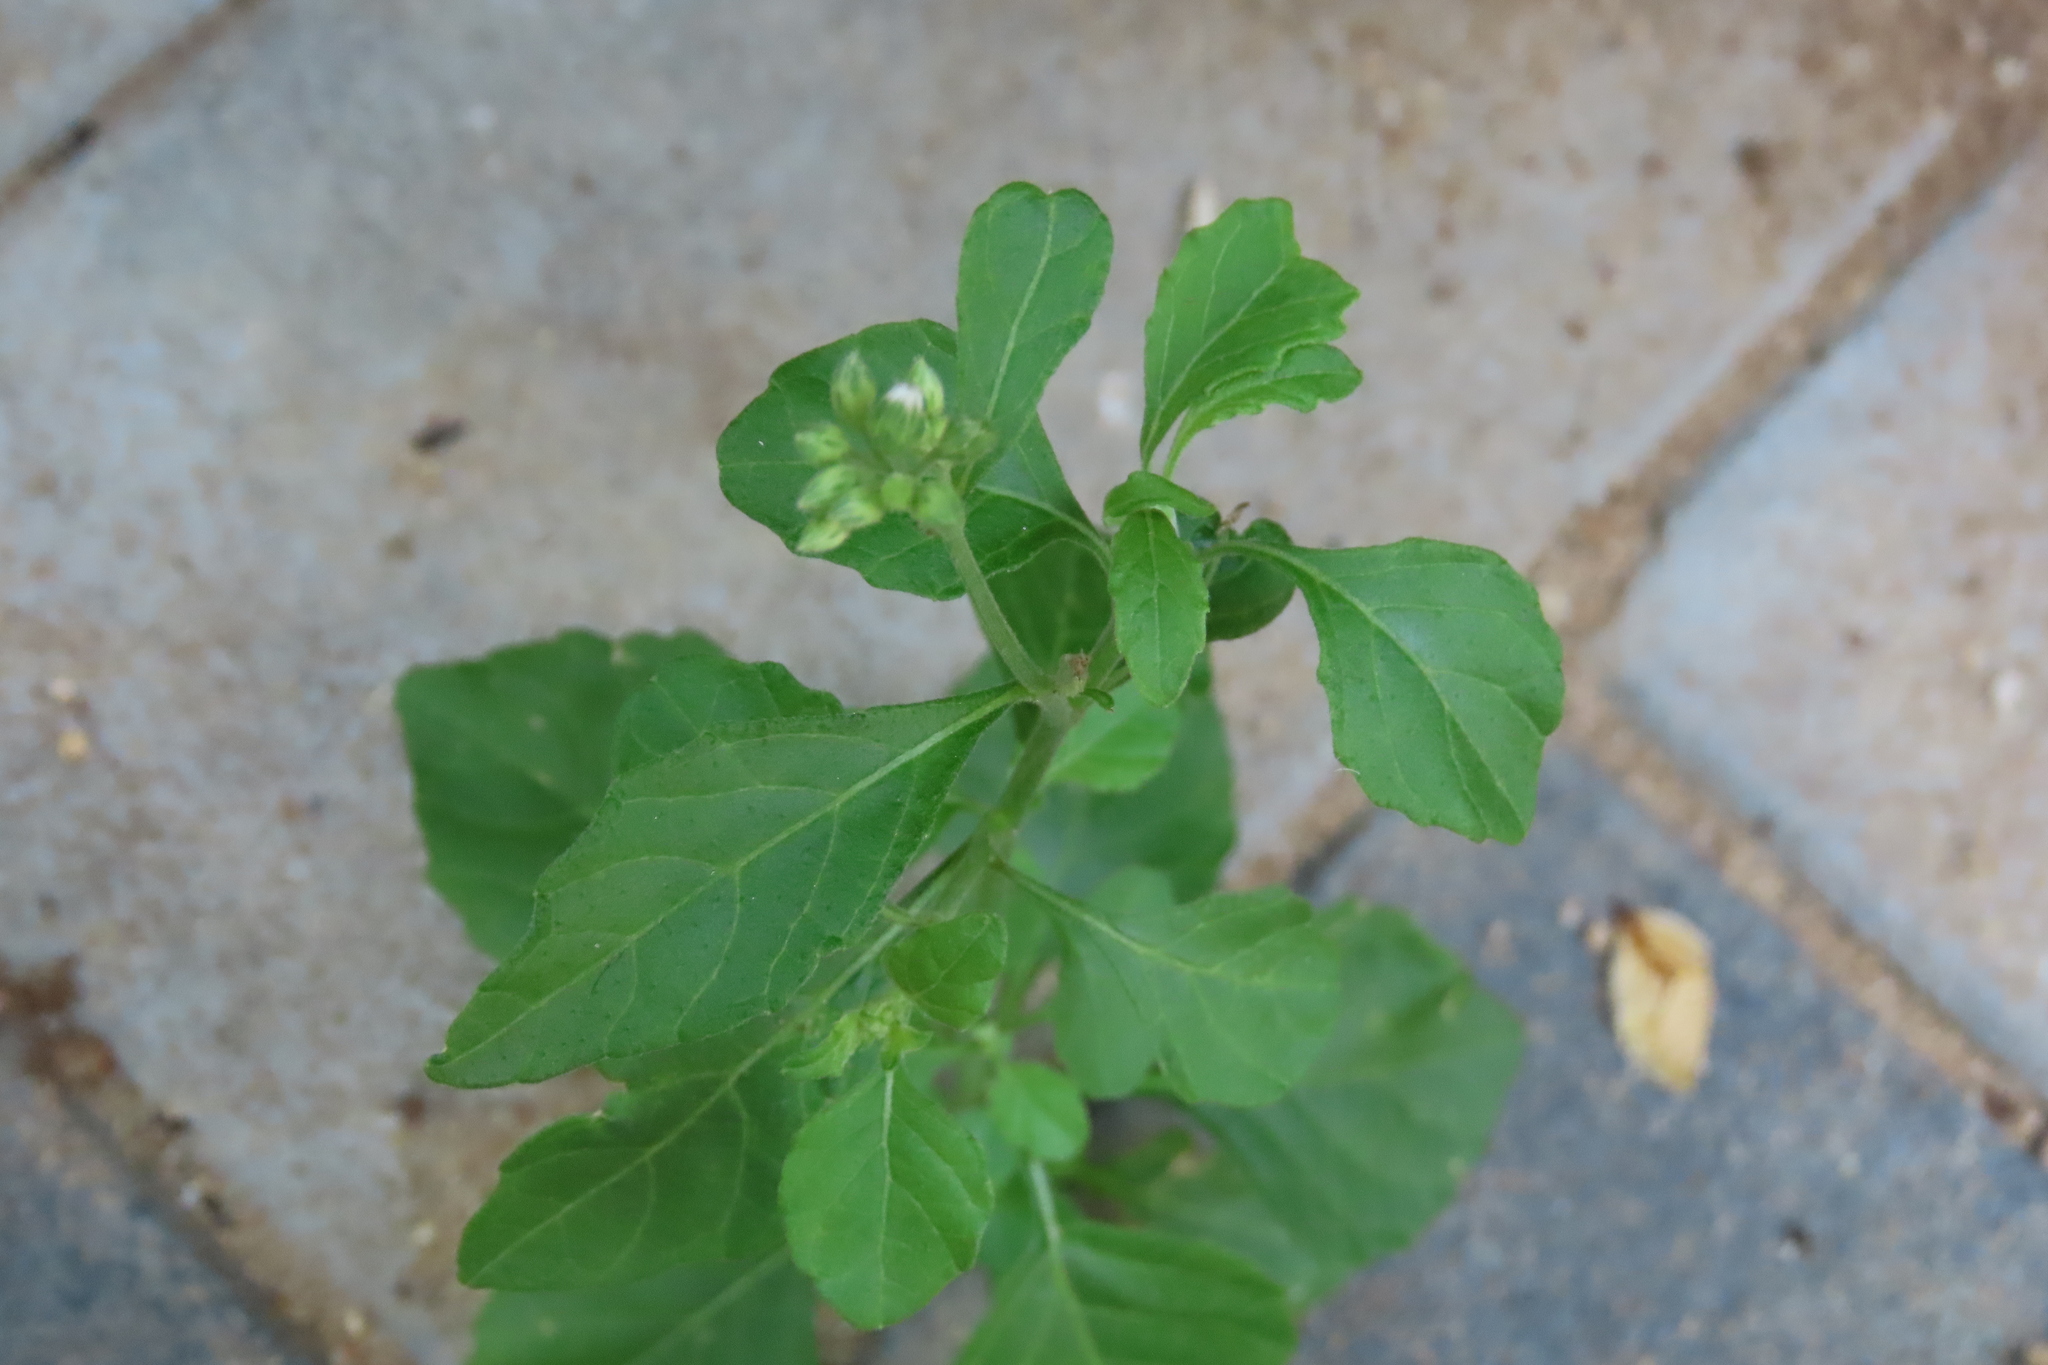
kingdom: Plantae
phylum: Tracheophyta
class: Magnoliopsida
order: Asterales
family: Asteraceae
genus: Cyanthillium
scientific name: Cyanthillium cinereum
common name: Little ironweed
